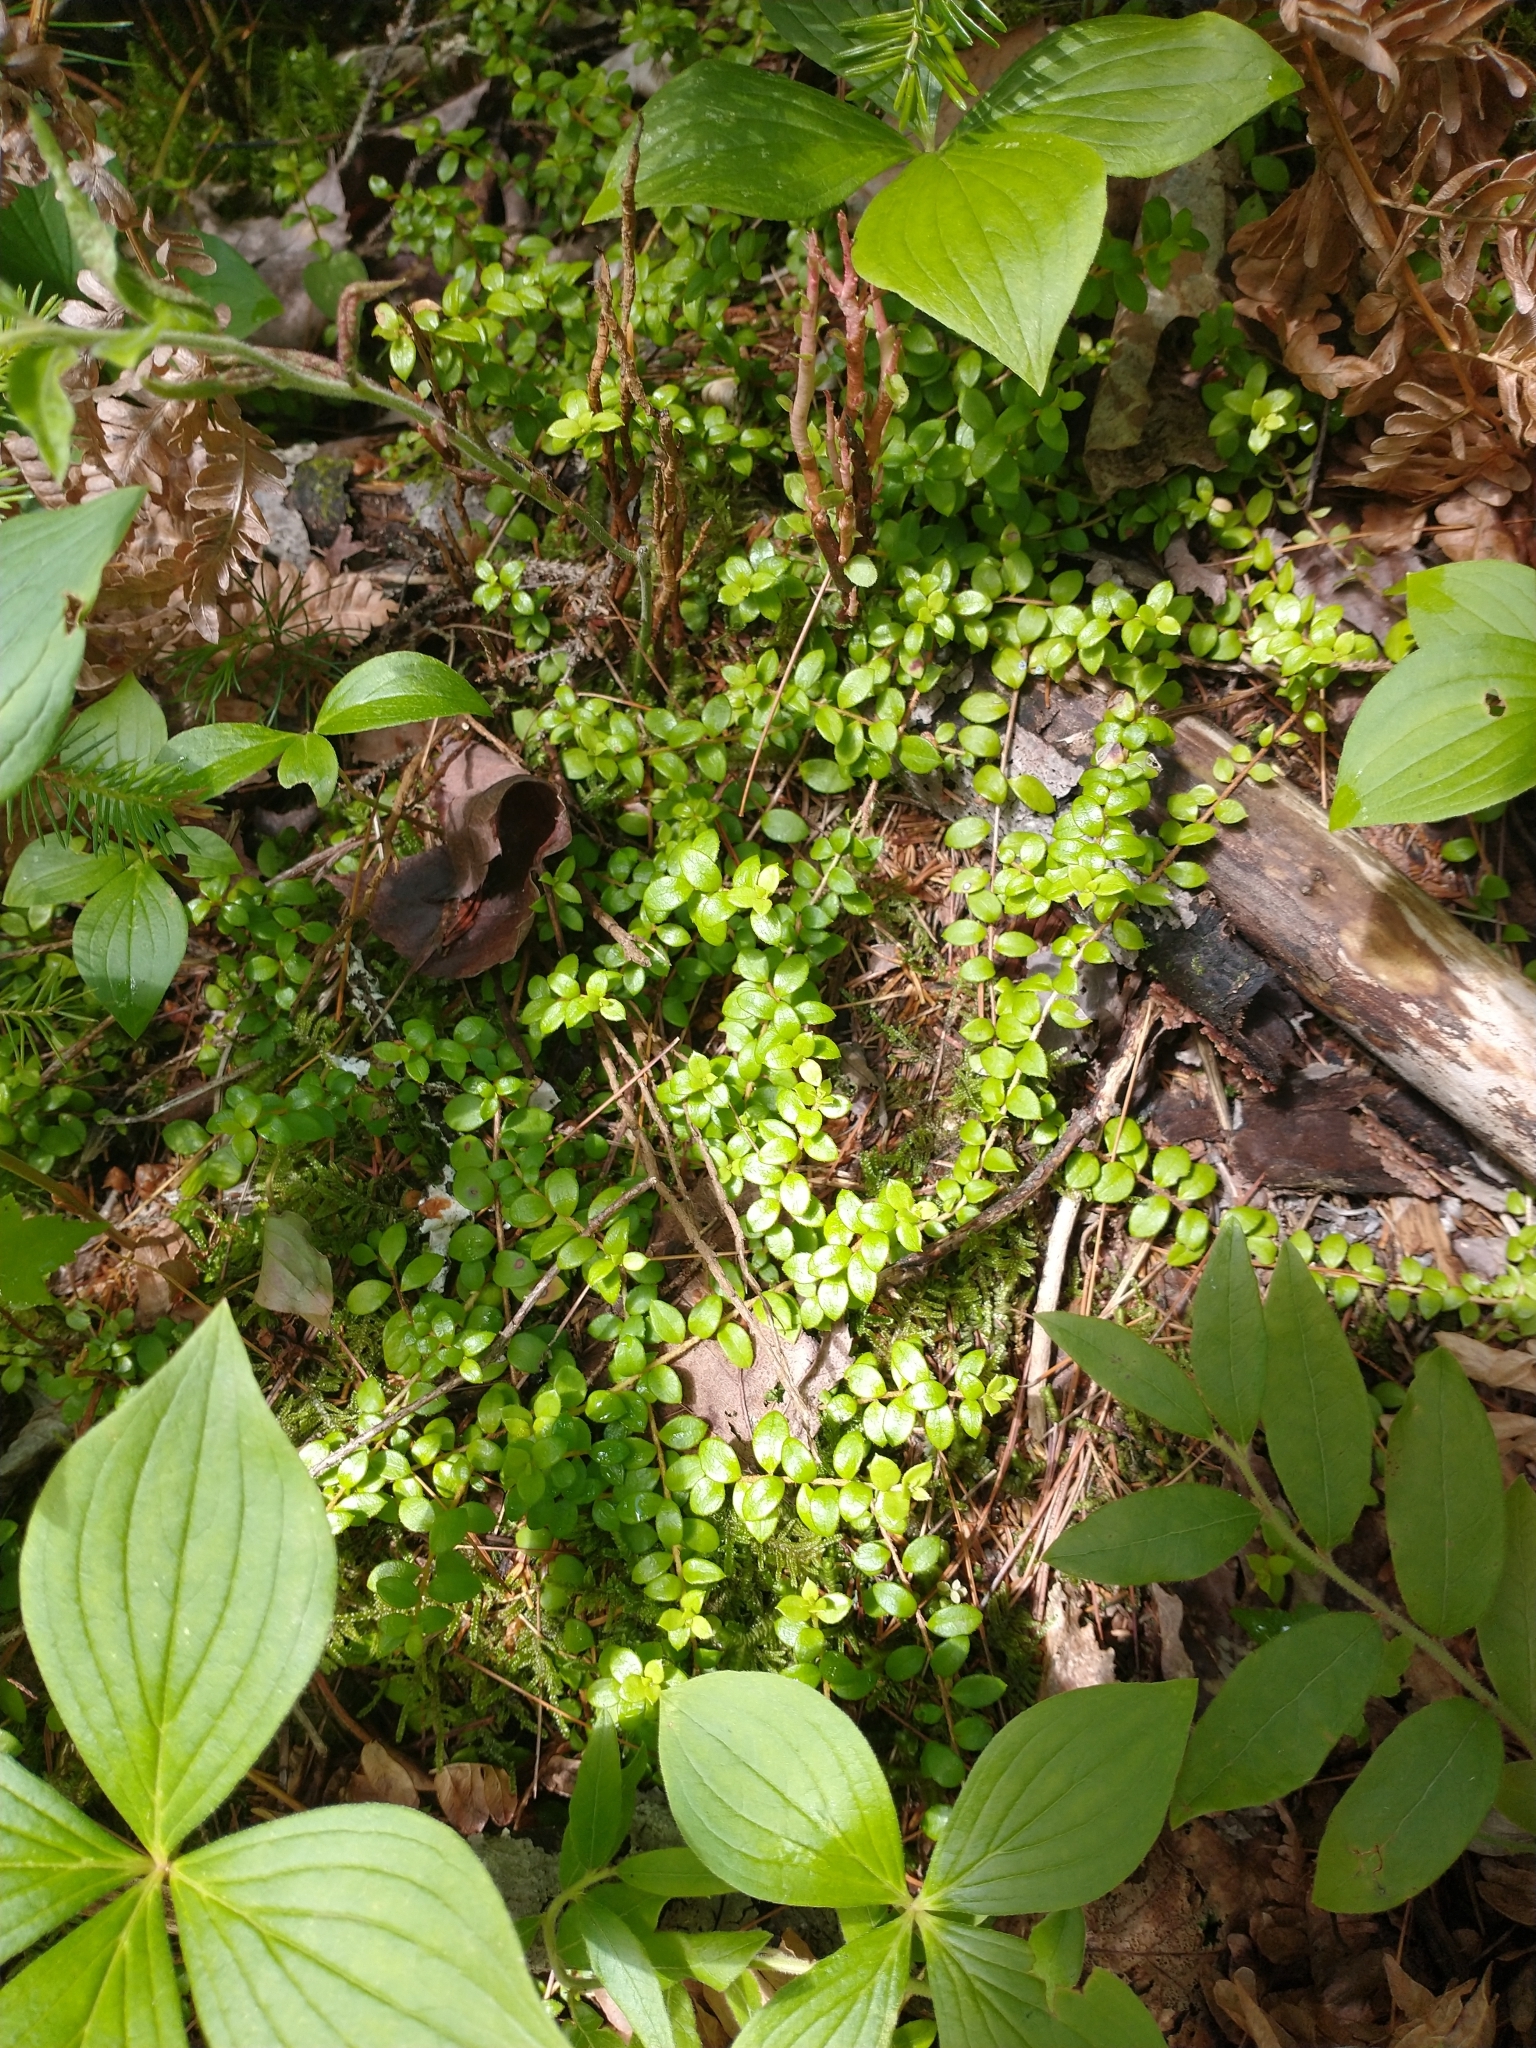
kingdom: Plantae
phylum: Tracheophyta
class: Magnoliopsida
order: Ericales
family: Ericaceae
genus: Gaultheria
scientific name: Gaultheria hispidula
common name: Cancer wintergreen
